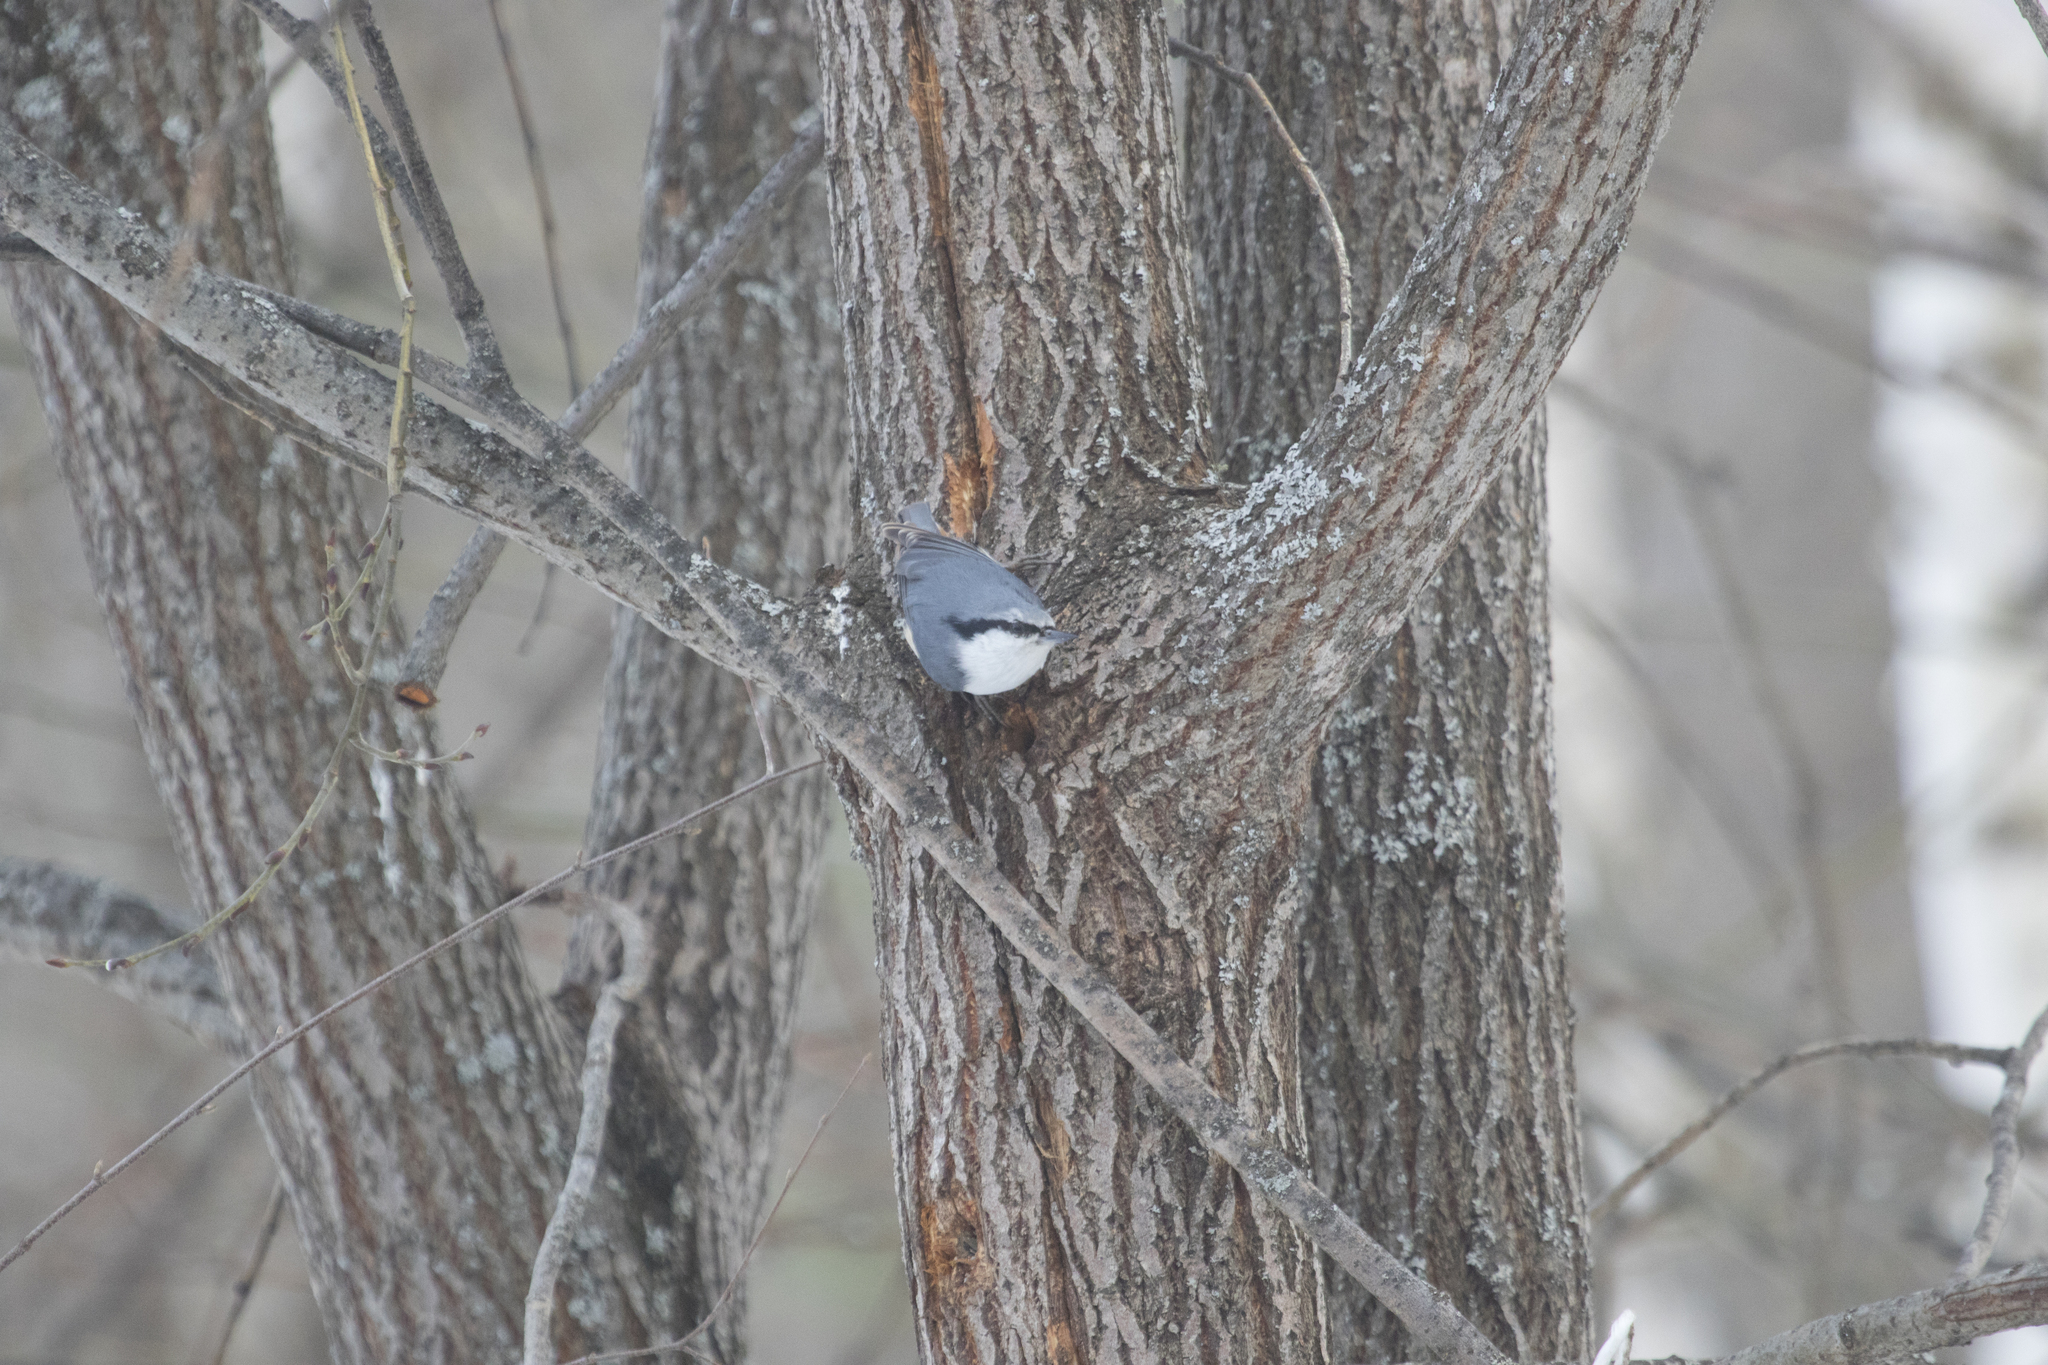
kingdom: Animalia
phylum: Chordata
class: Aves
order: Passeriformes
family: Sittidae
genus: Sitta
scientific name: Sitta europaea
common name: Eurasian nuthatch
